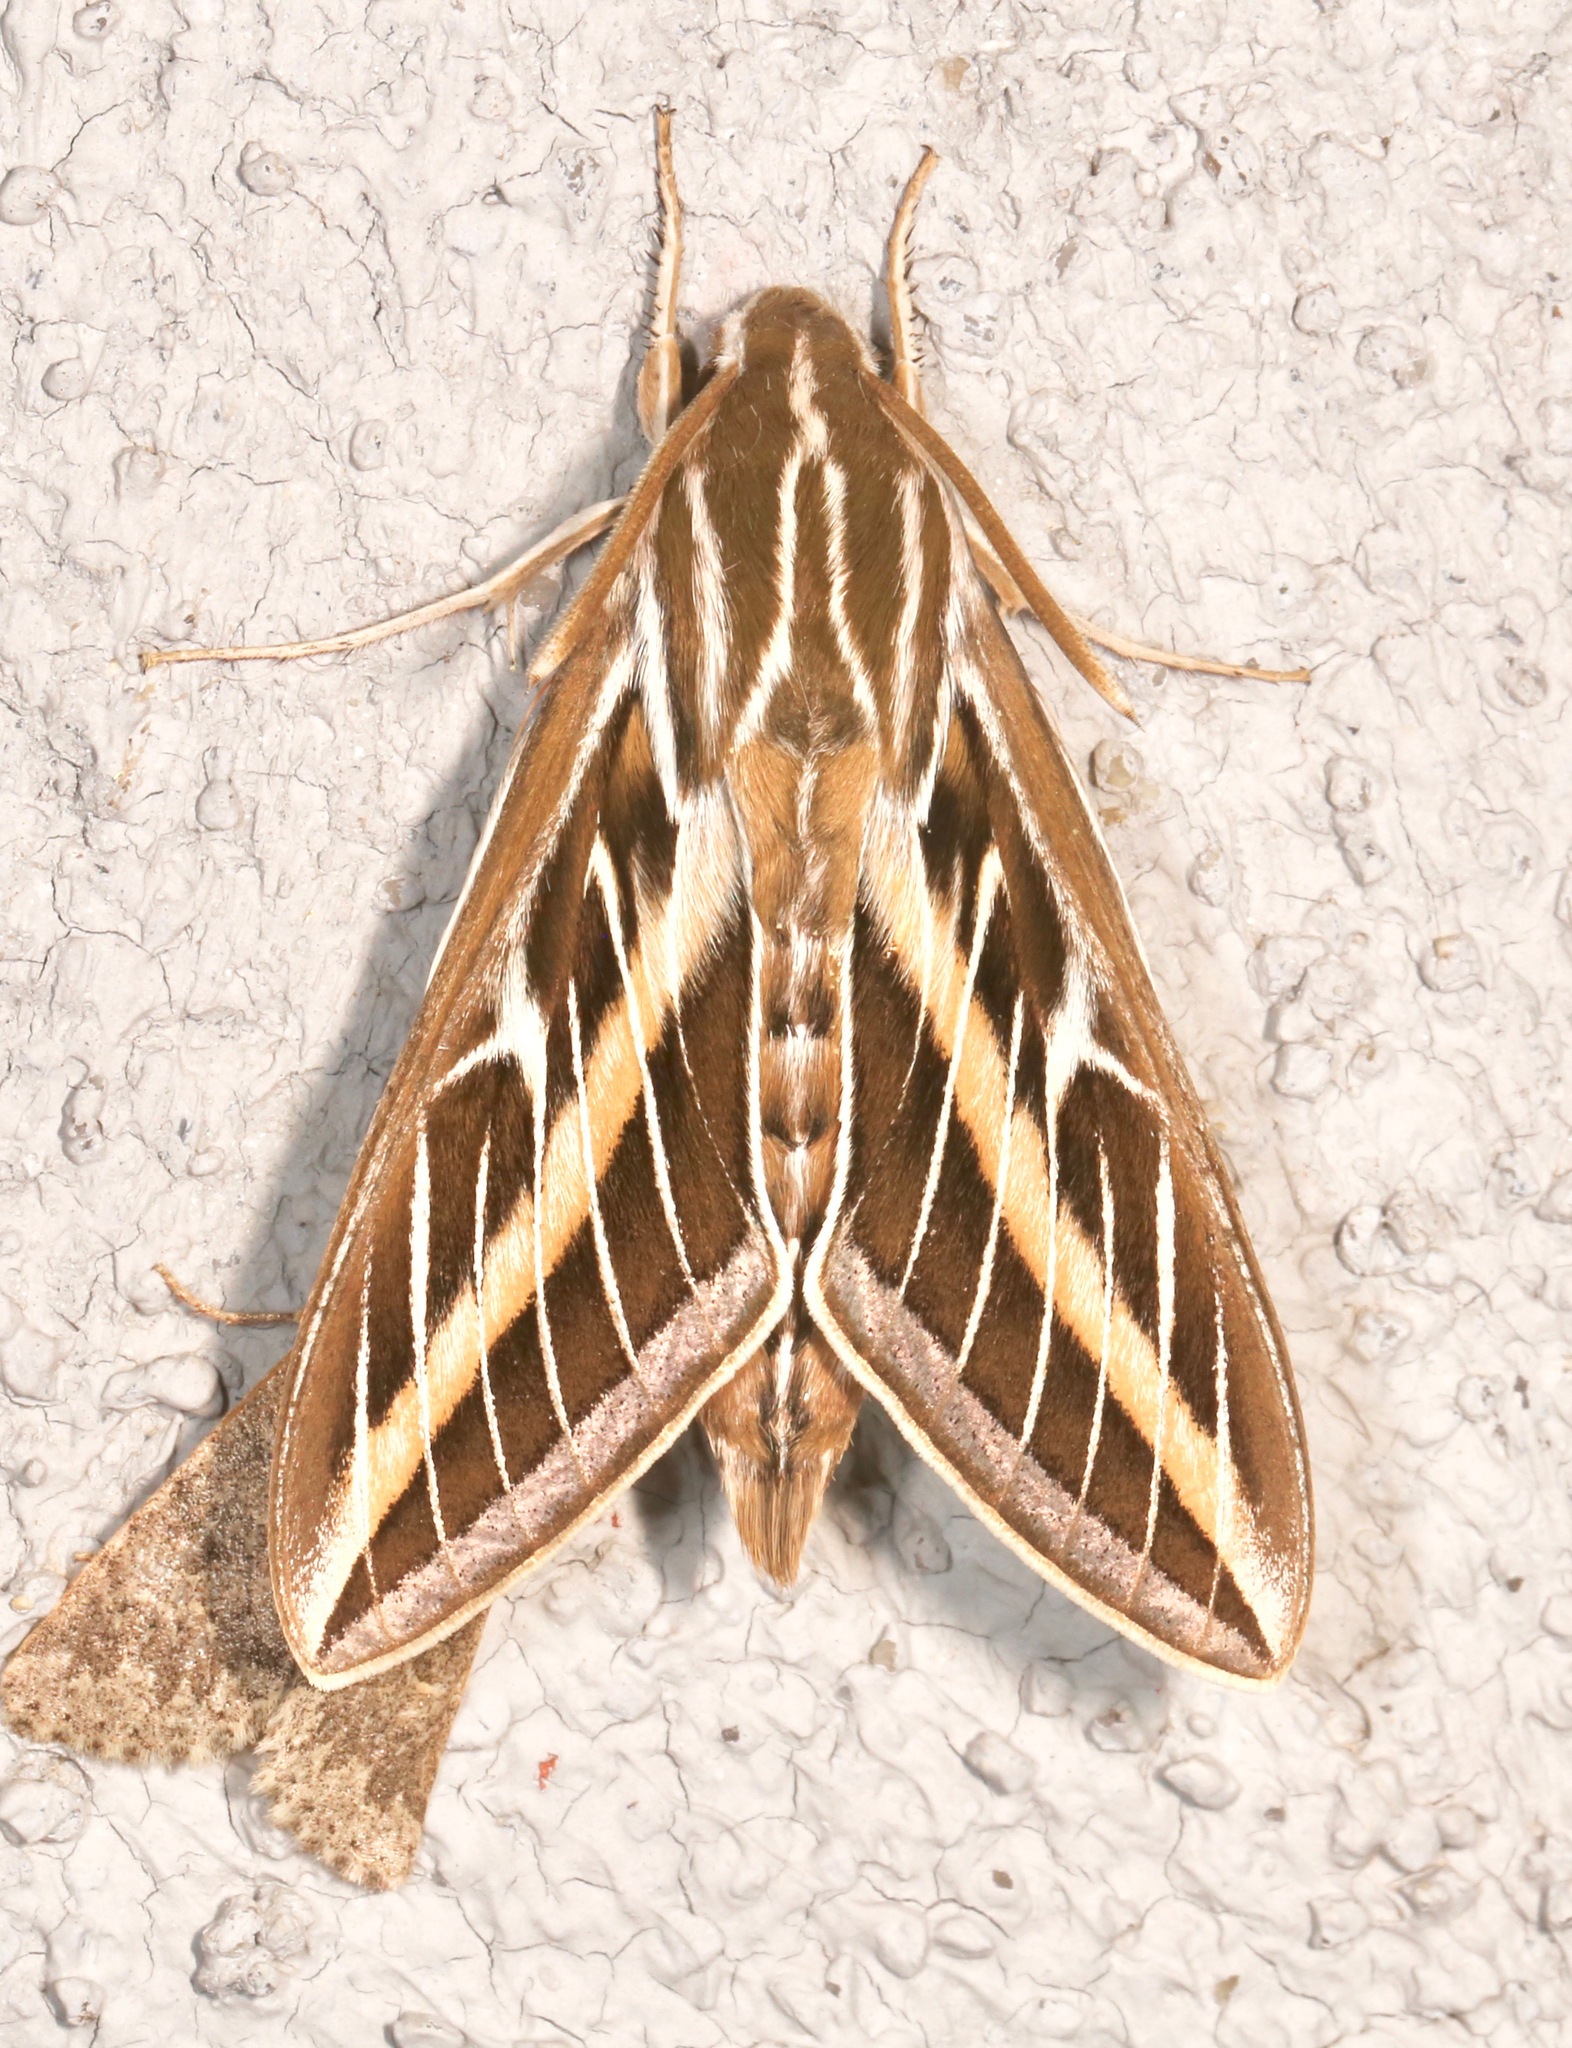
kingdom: Animalia
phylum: Arthropoda
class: Insecta
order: Lepidoptera
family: Sphingidae
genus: Hyles
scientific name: Hyles lineata
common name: White-lined sphinx
